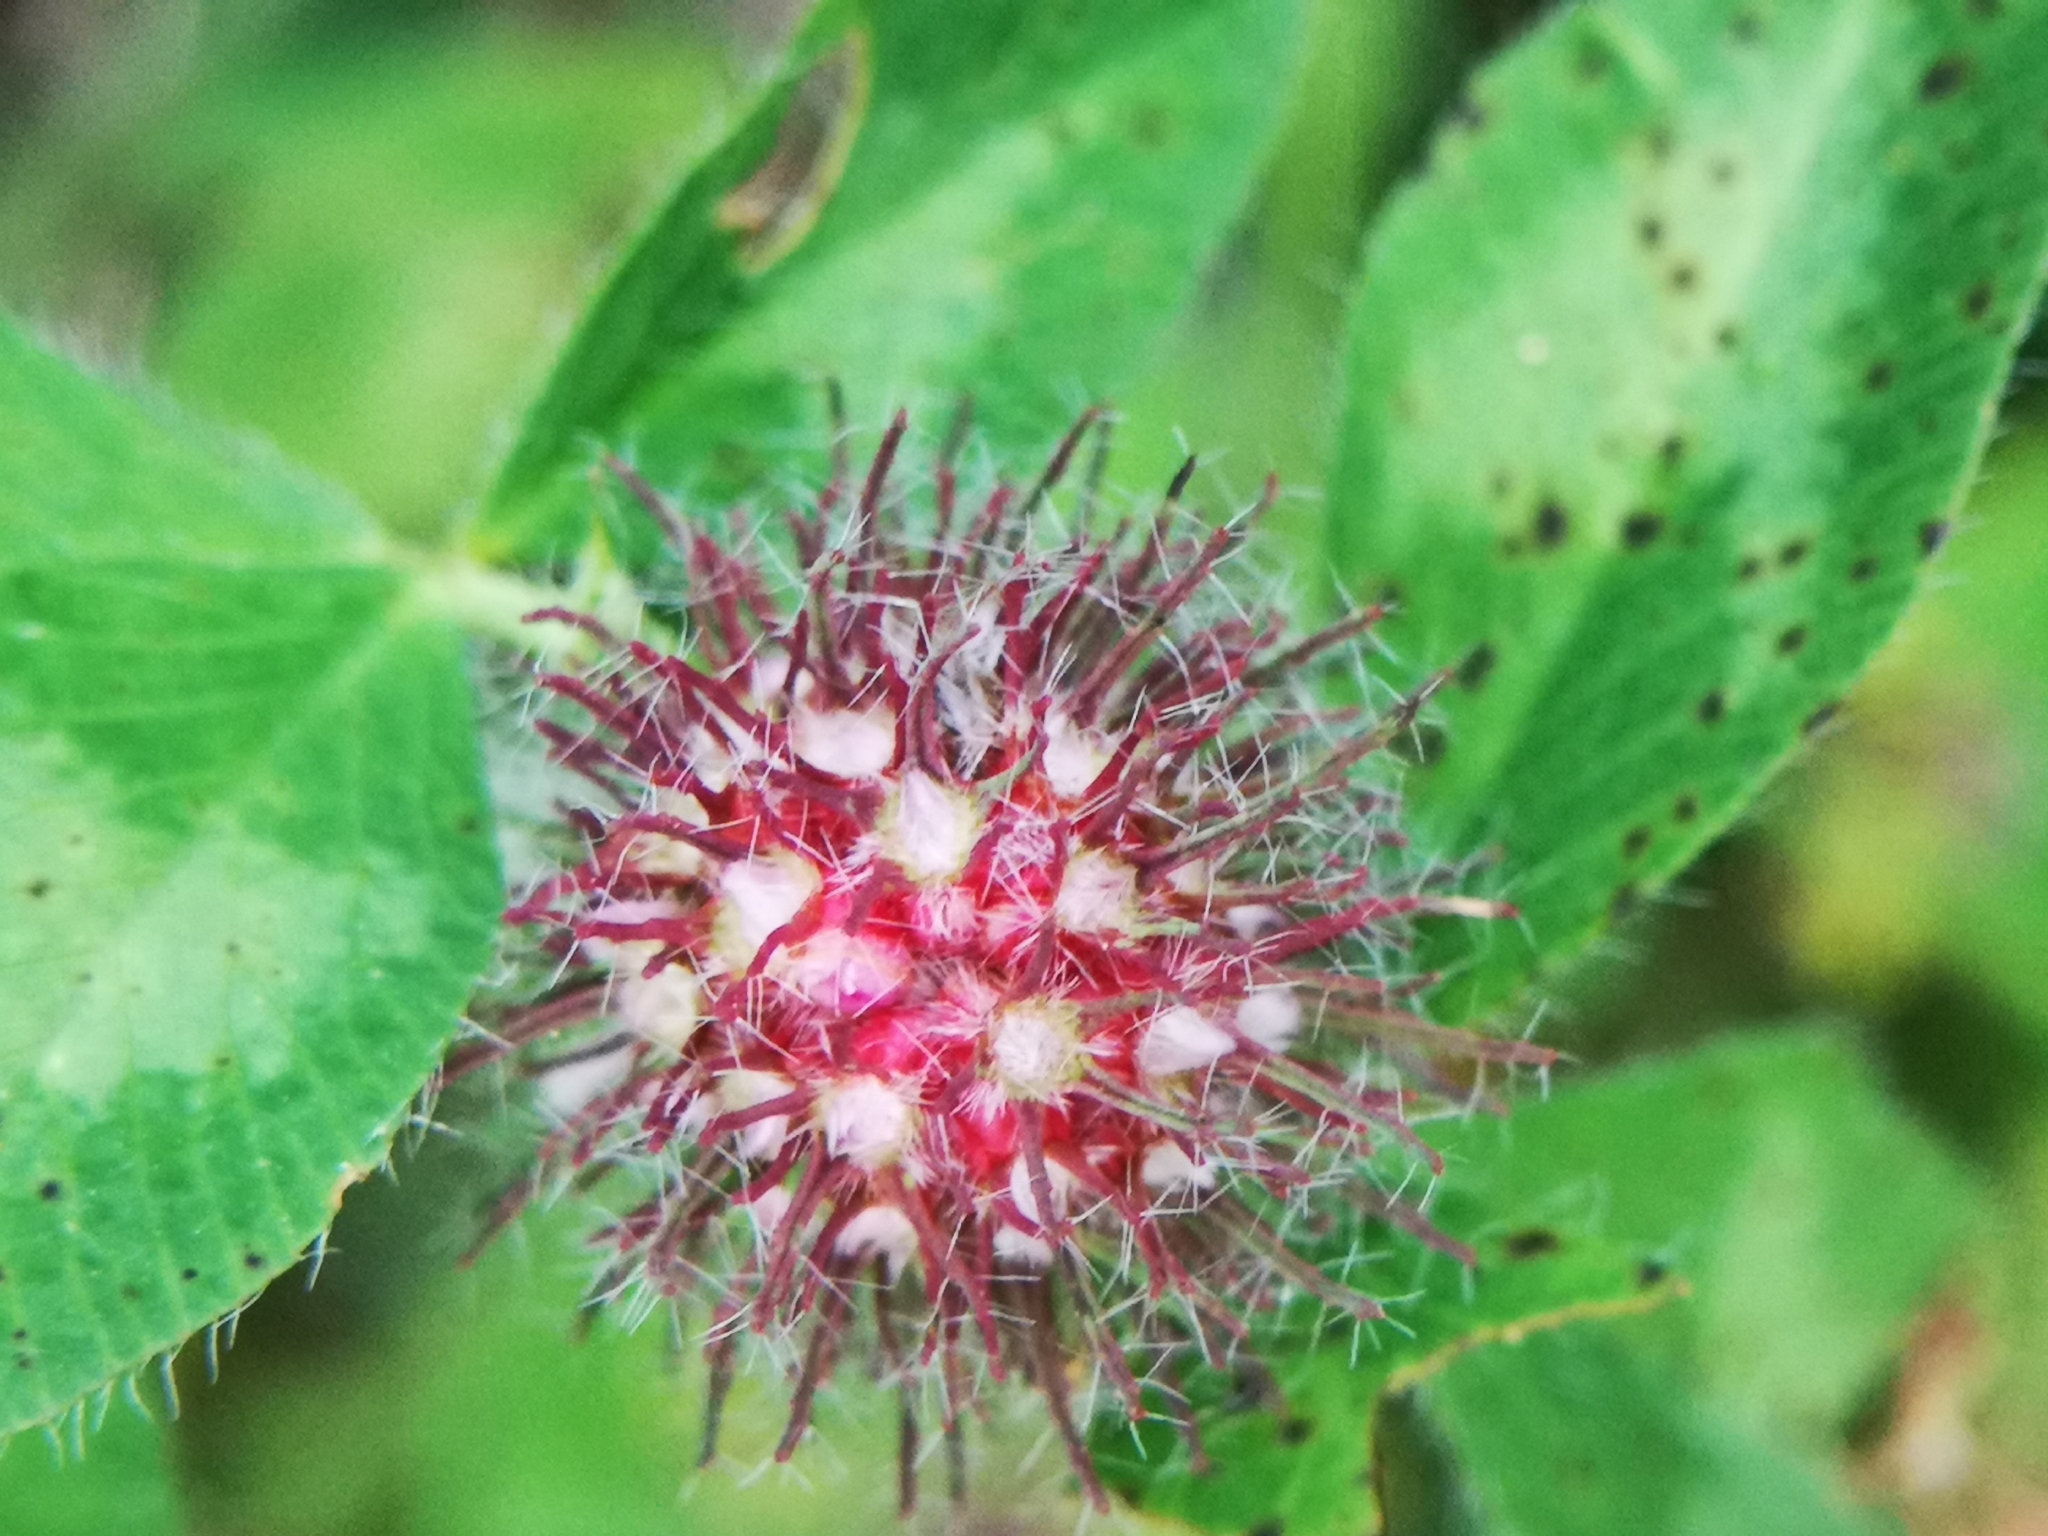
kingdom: Plantae
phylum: Tracheophyta
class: Magnoliopsida
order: Fabales
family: Fabaceae
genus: Trifolium
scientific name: Trifolium pratense
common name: Red clover
